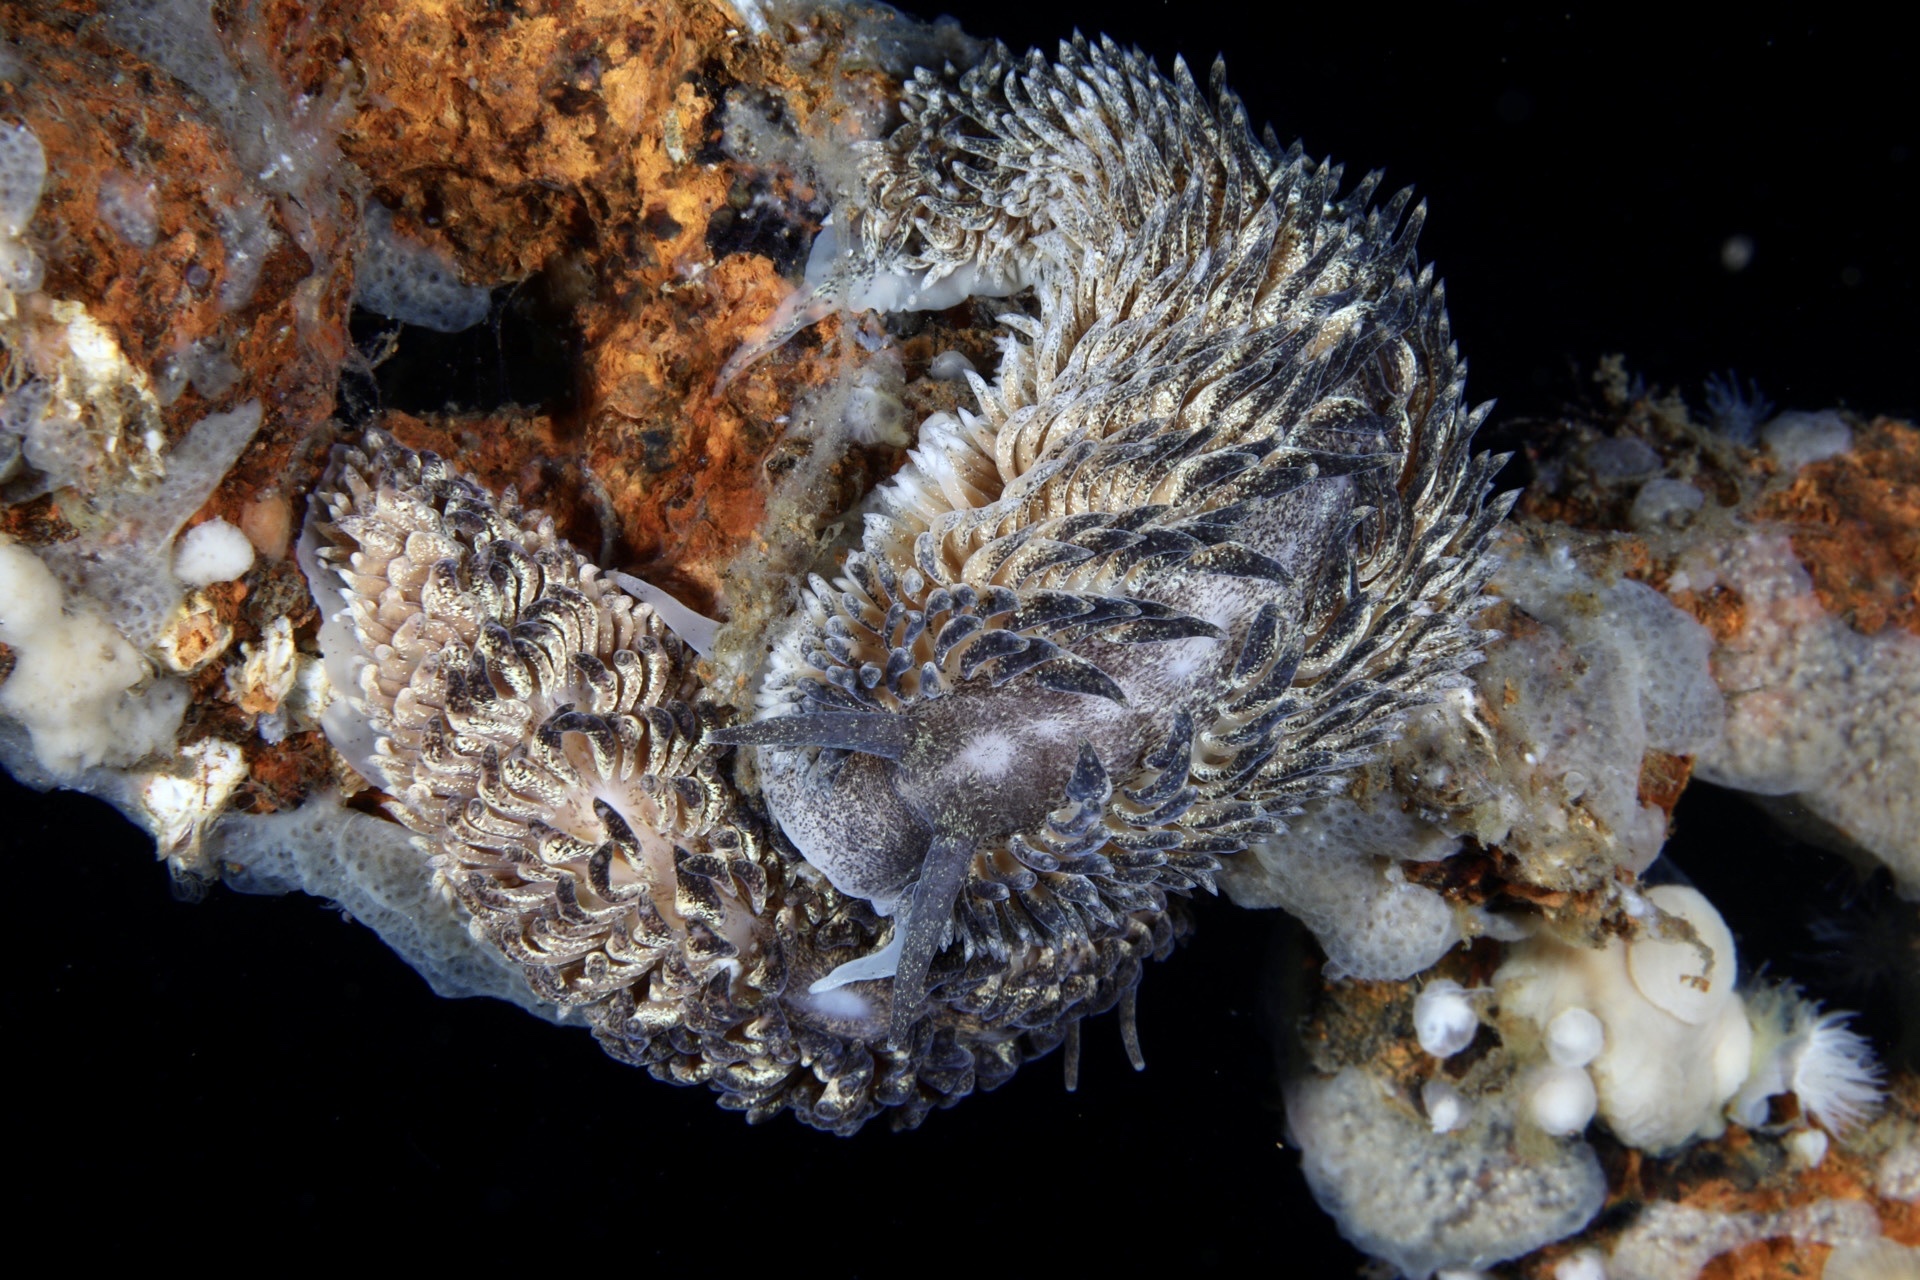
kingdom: Animalia
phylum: Mollusca
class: Gastropoda
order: Nudibranchia
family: Aeolidiidae
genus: Aeolidia
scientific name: Aeolidia papillosa
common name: Common grey sea slug
